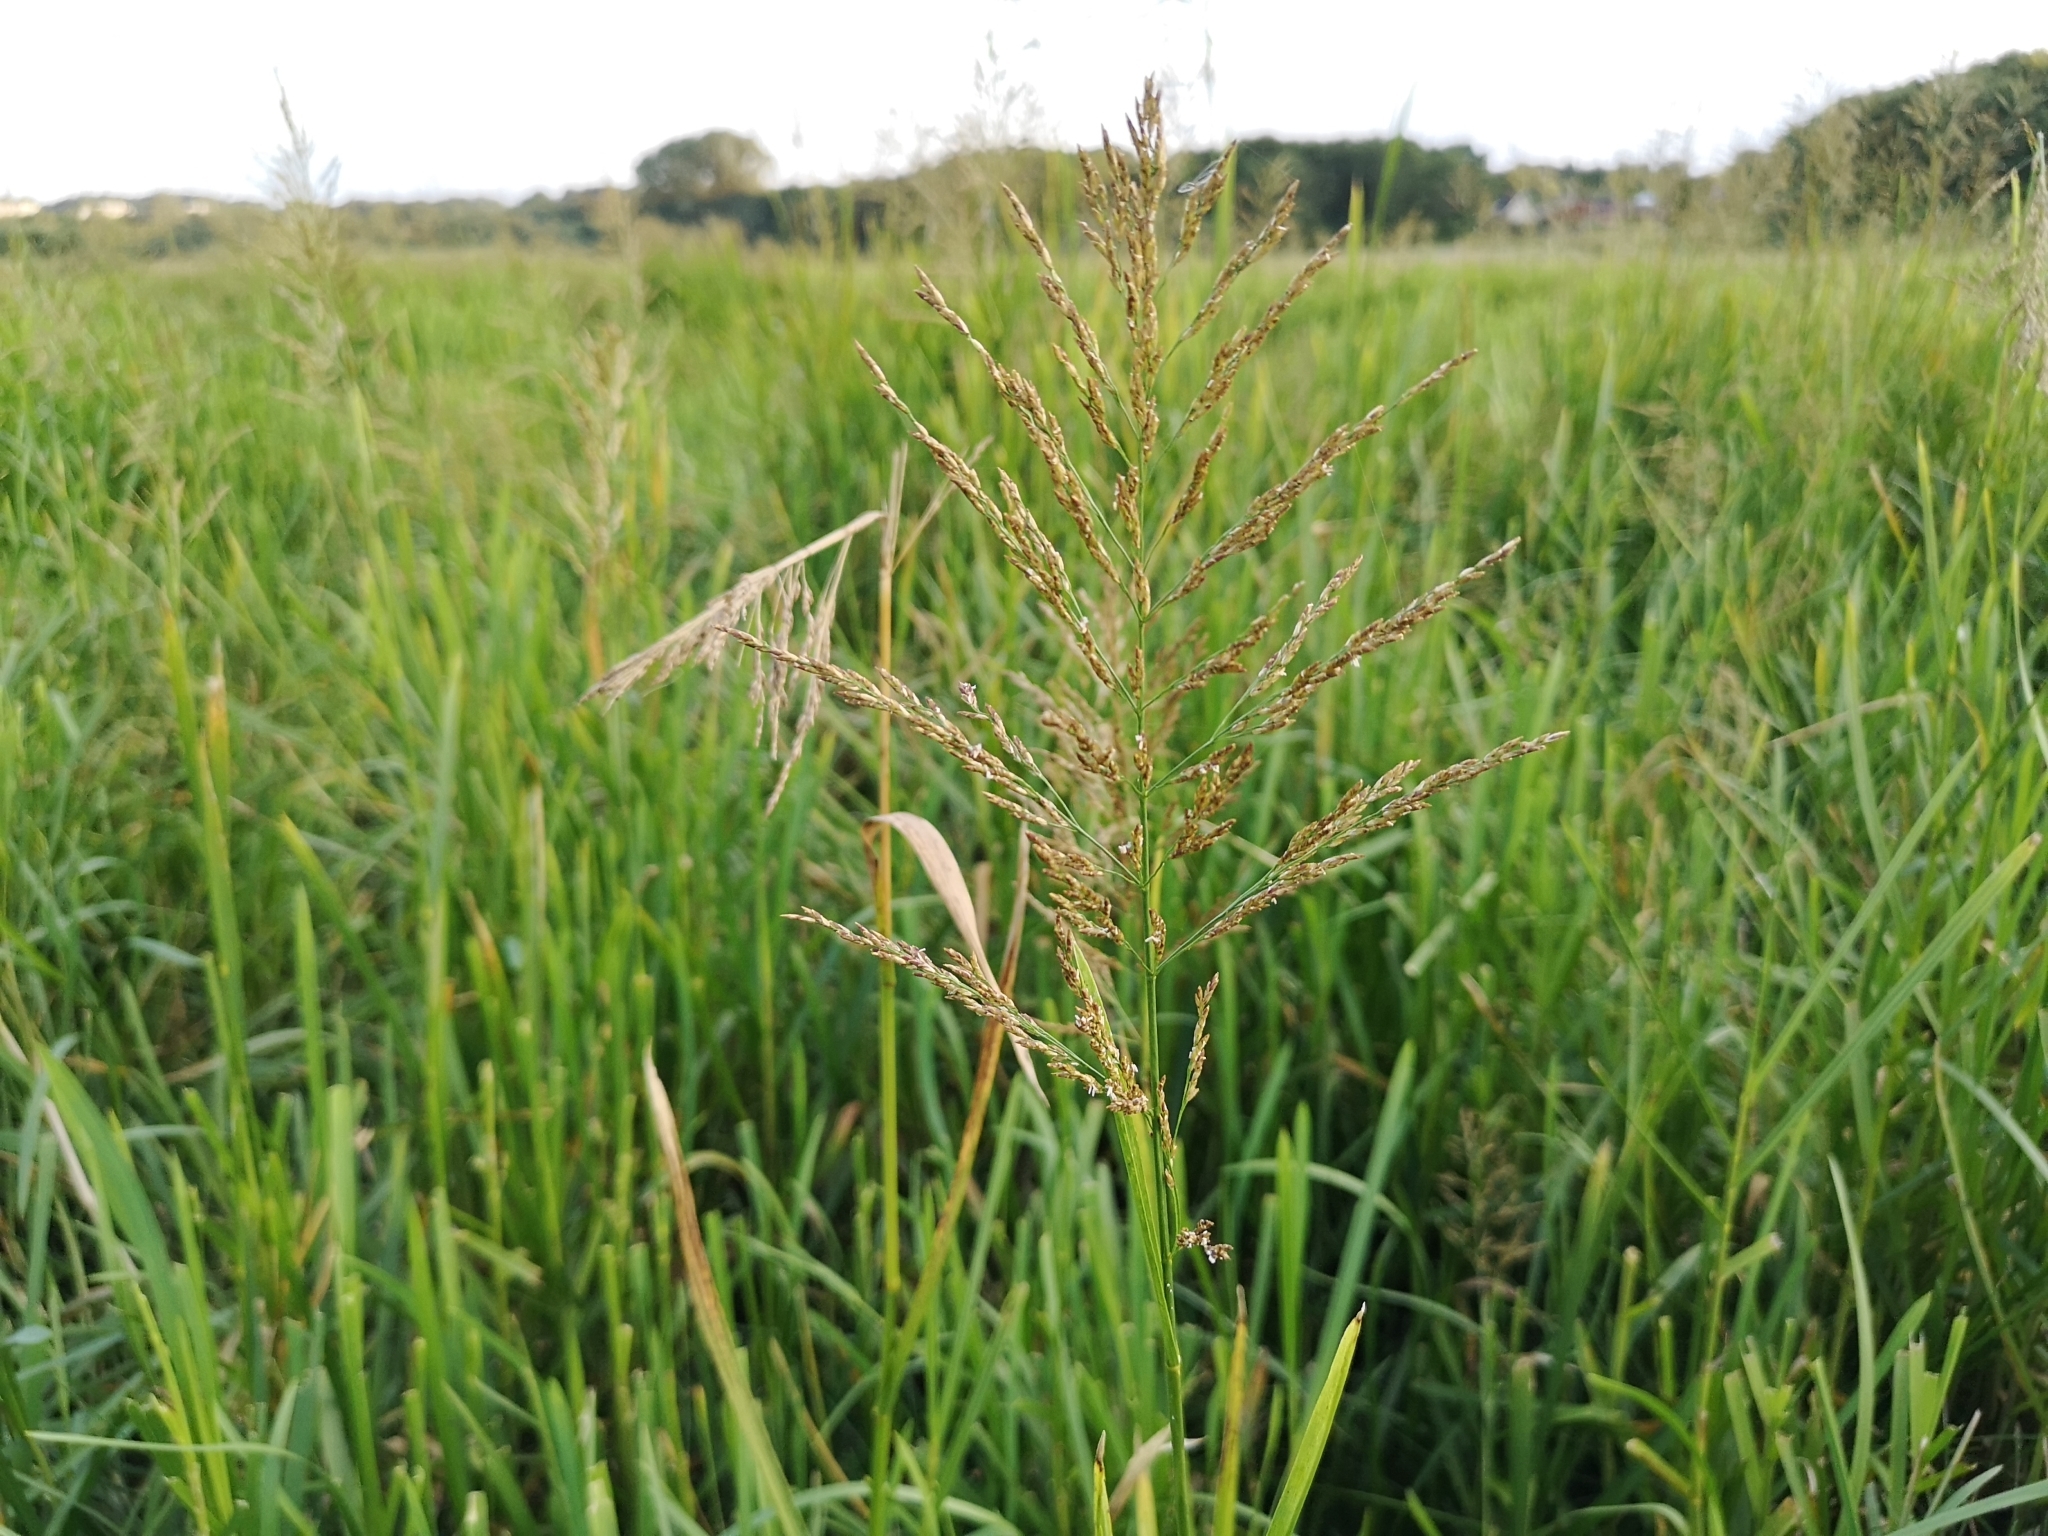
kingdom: Plantae
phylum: Tracheophyta
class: Liliopsida
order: Poales
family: Poaceae
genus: Glyceria
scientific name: Glyceria maxima
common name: Reed mannagrass
